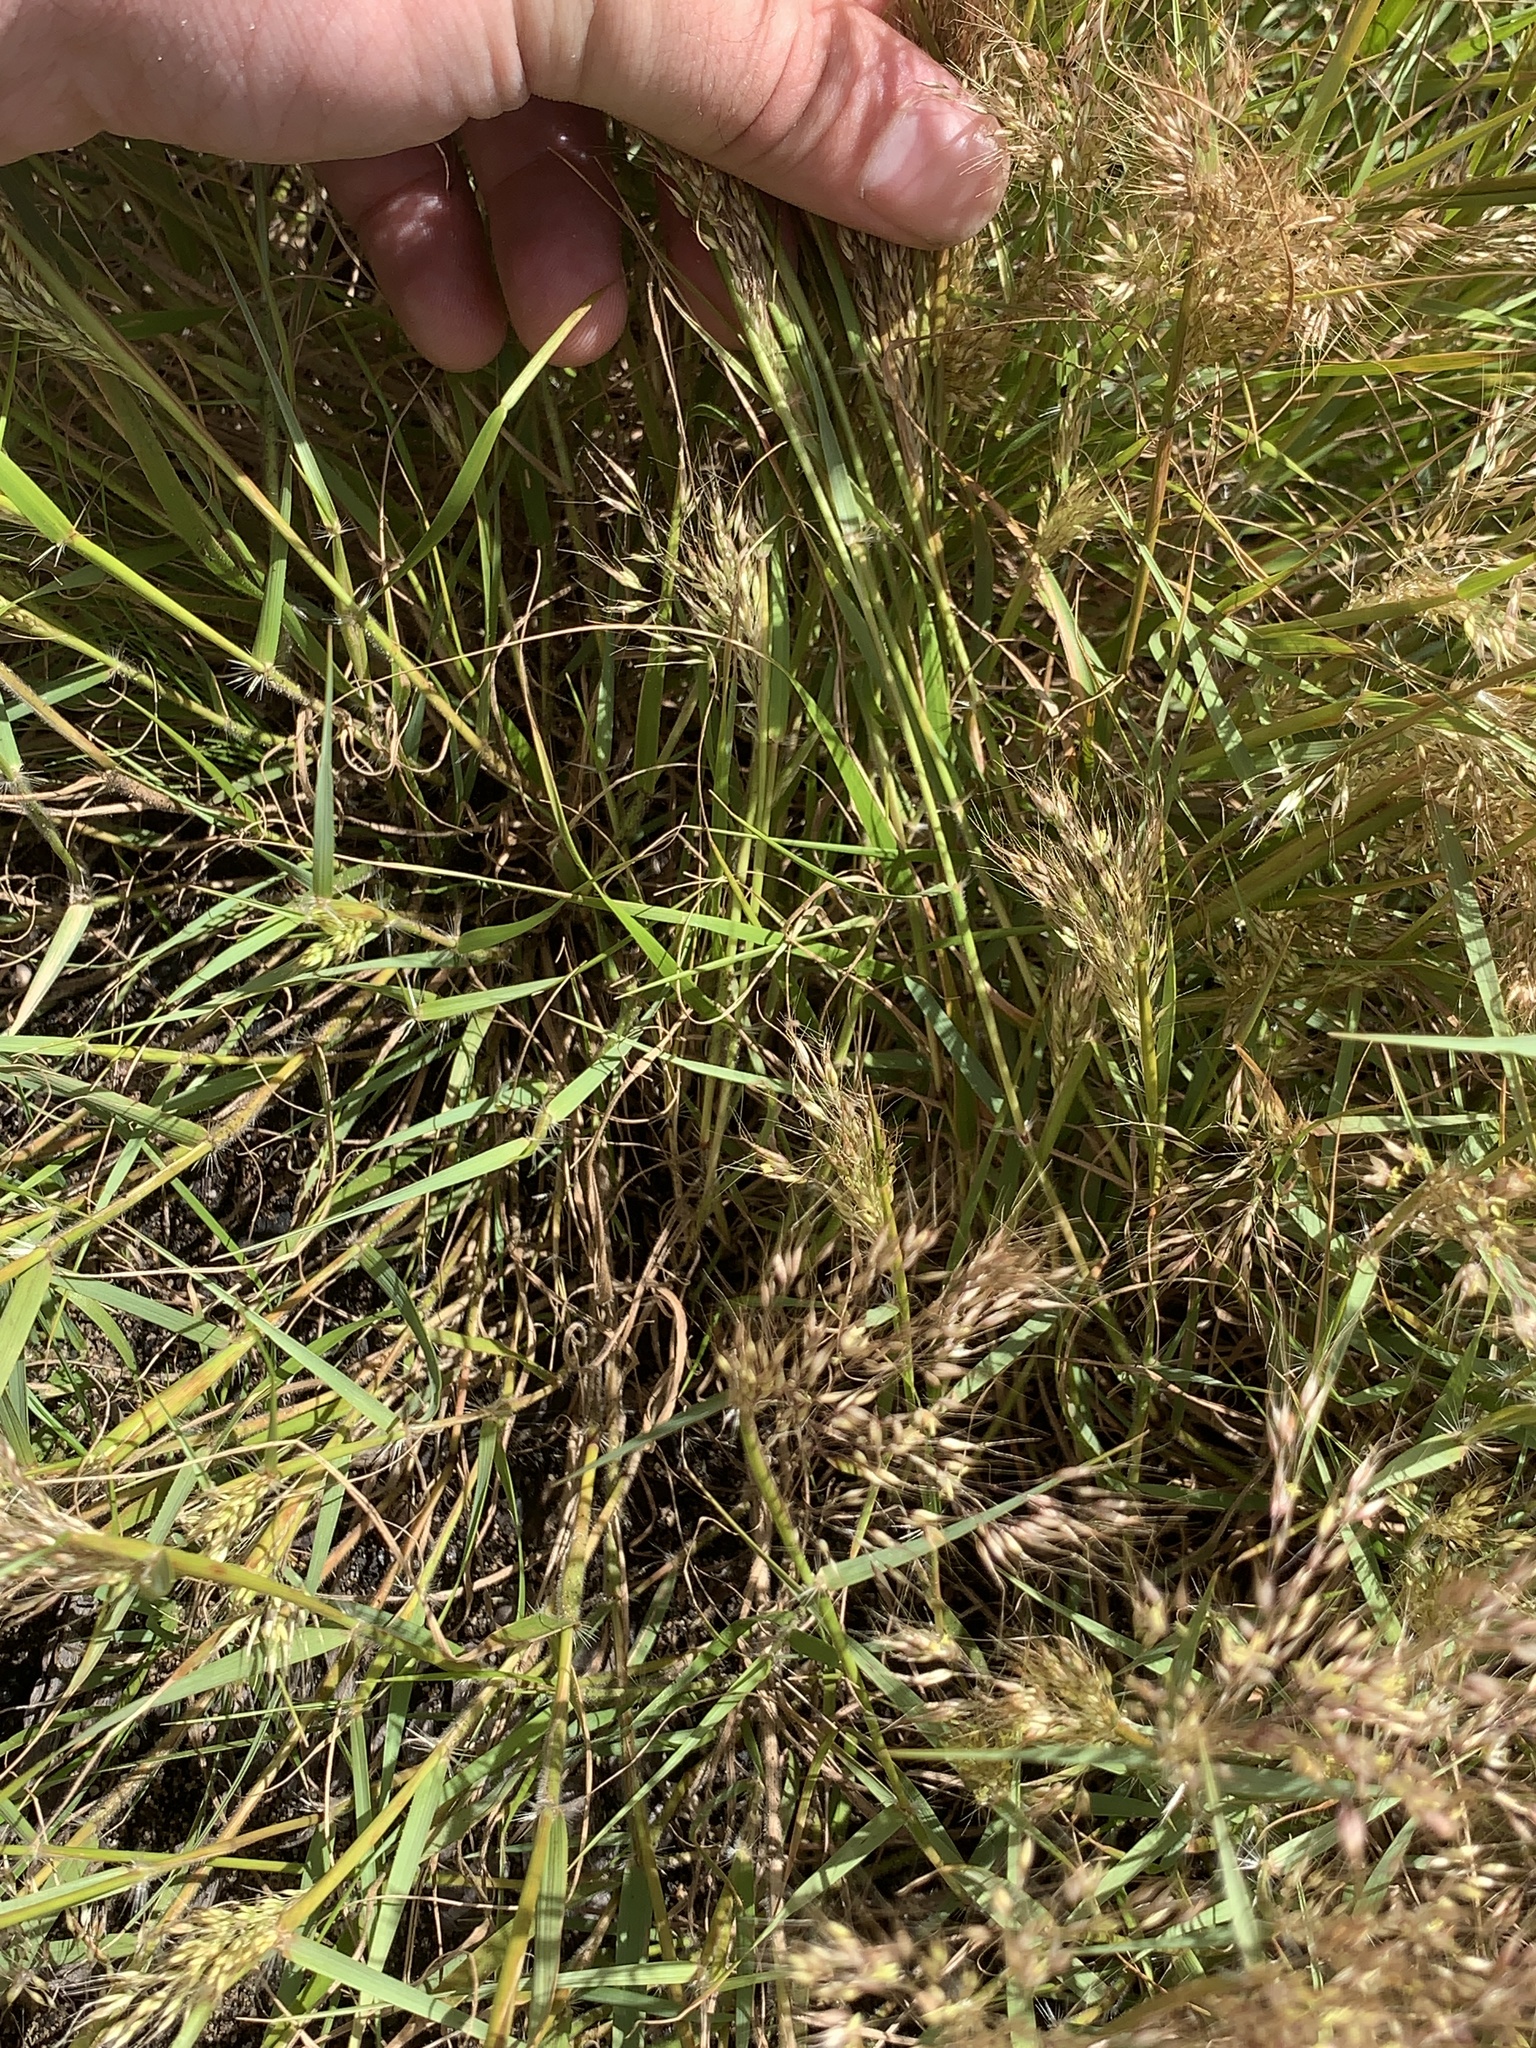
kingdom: Plantae
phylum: Tracheophyta
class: Liliopsida
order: Poales
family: Poaceae
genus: Pentameris
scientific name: Pentameris pallida
